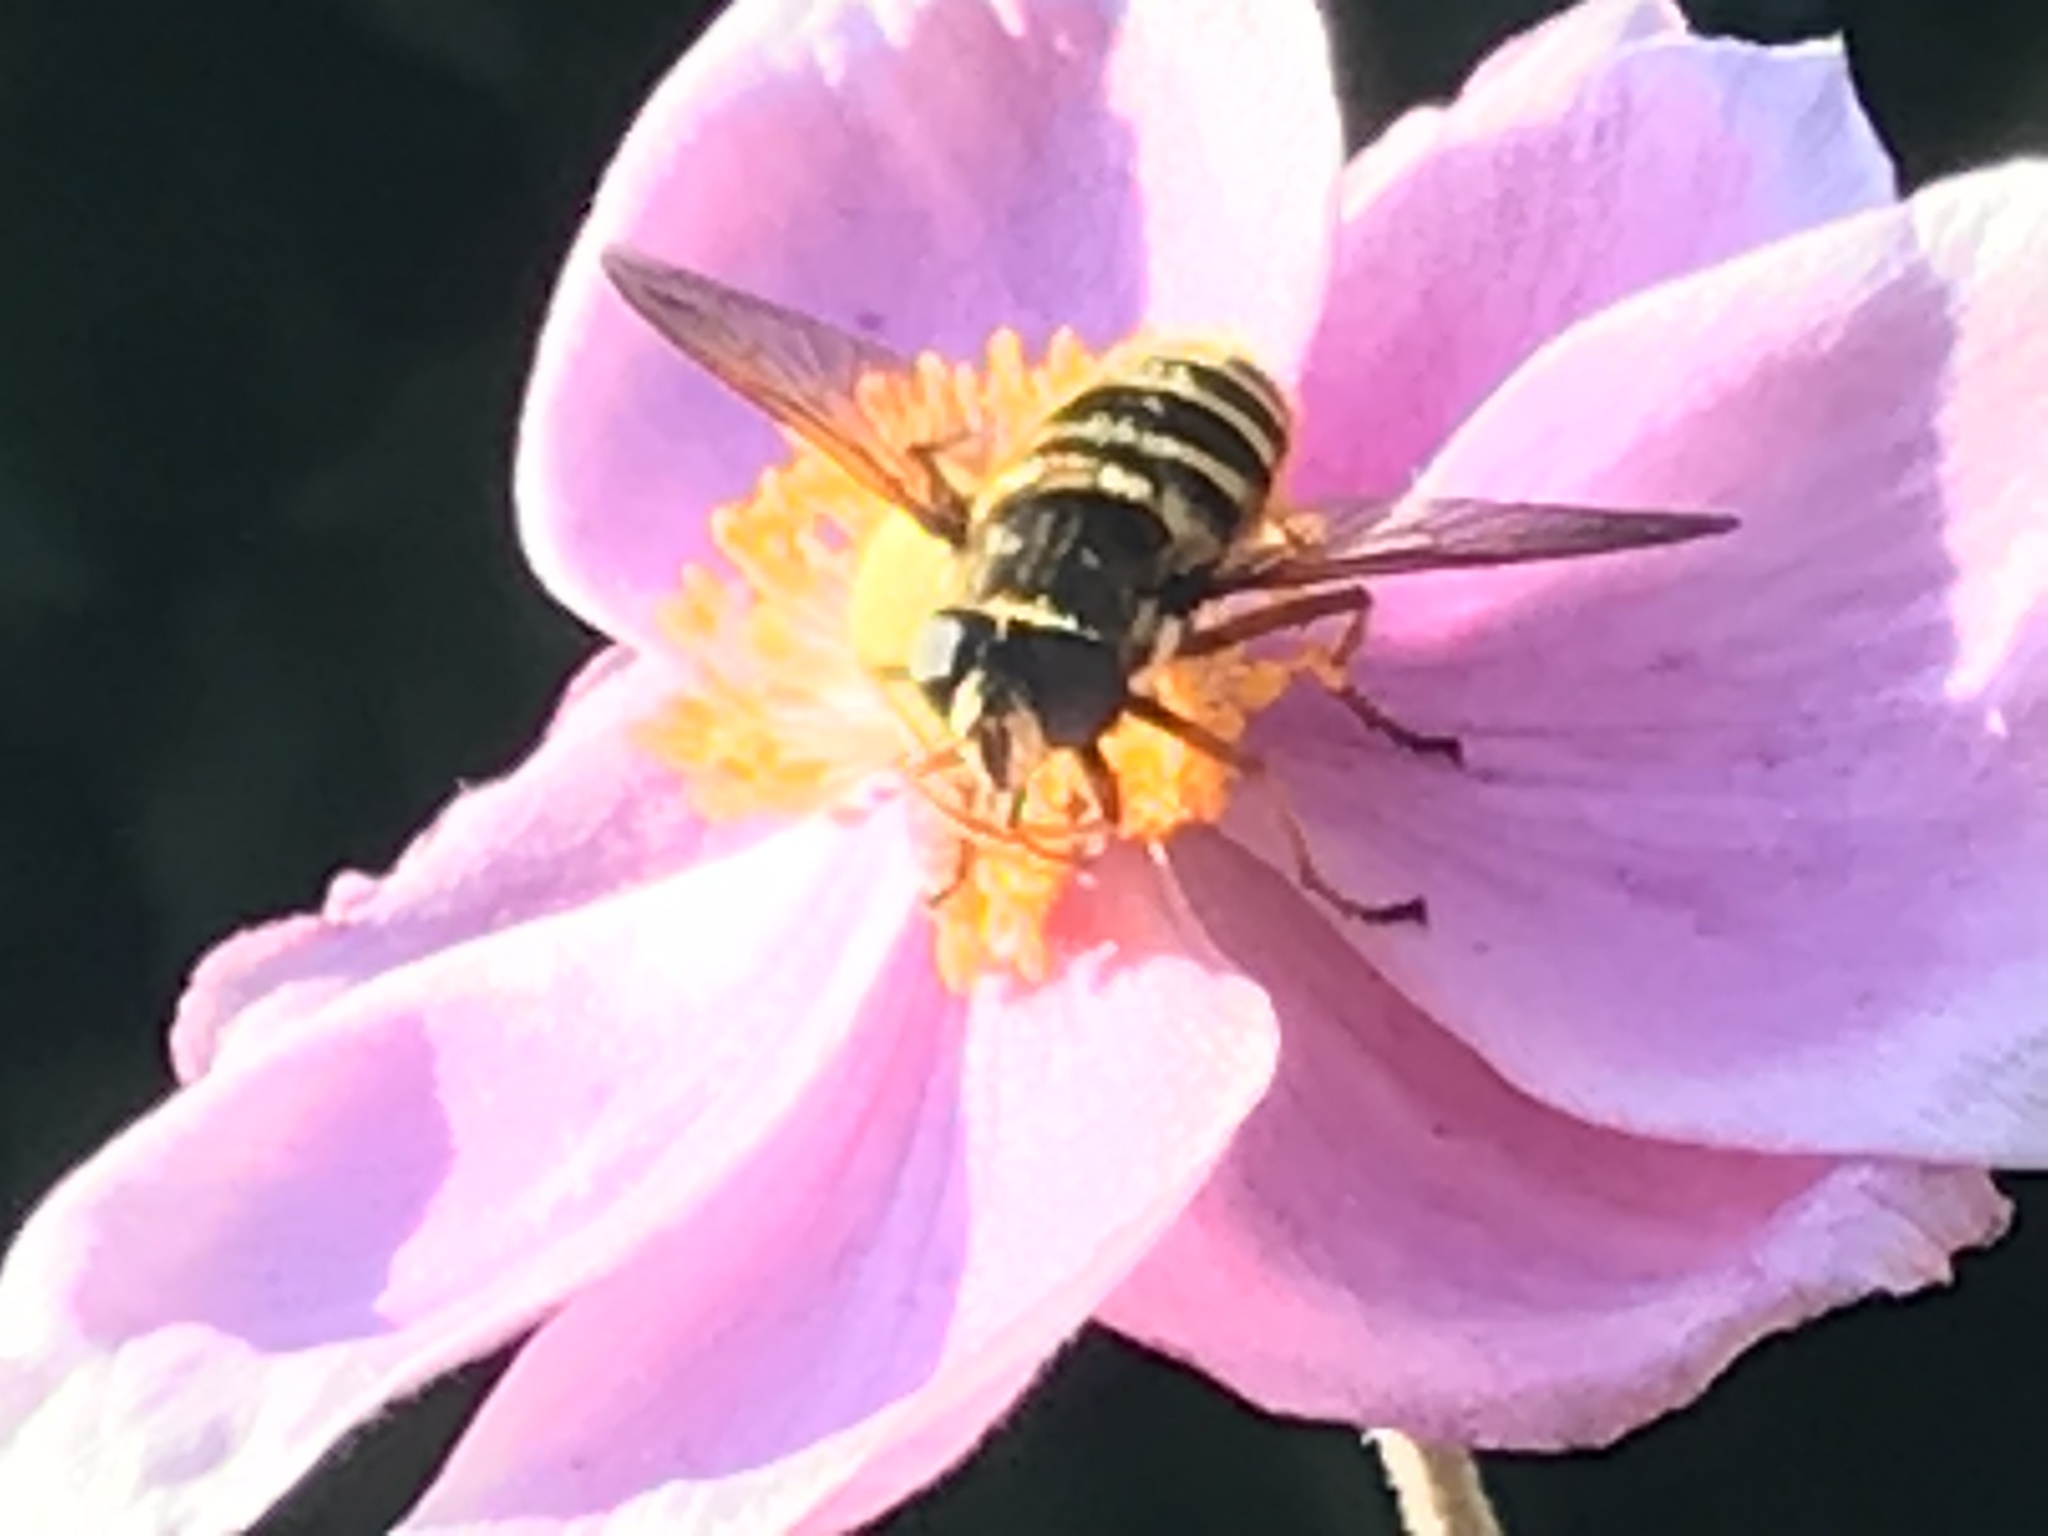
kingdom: Animalia
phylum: Arthropoda
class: Insecta
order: Diptera
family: Syrphidae
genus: Sericomyia
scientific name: Sericomyia silentis
